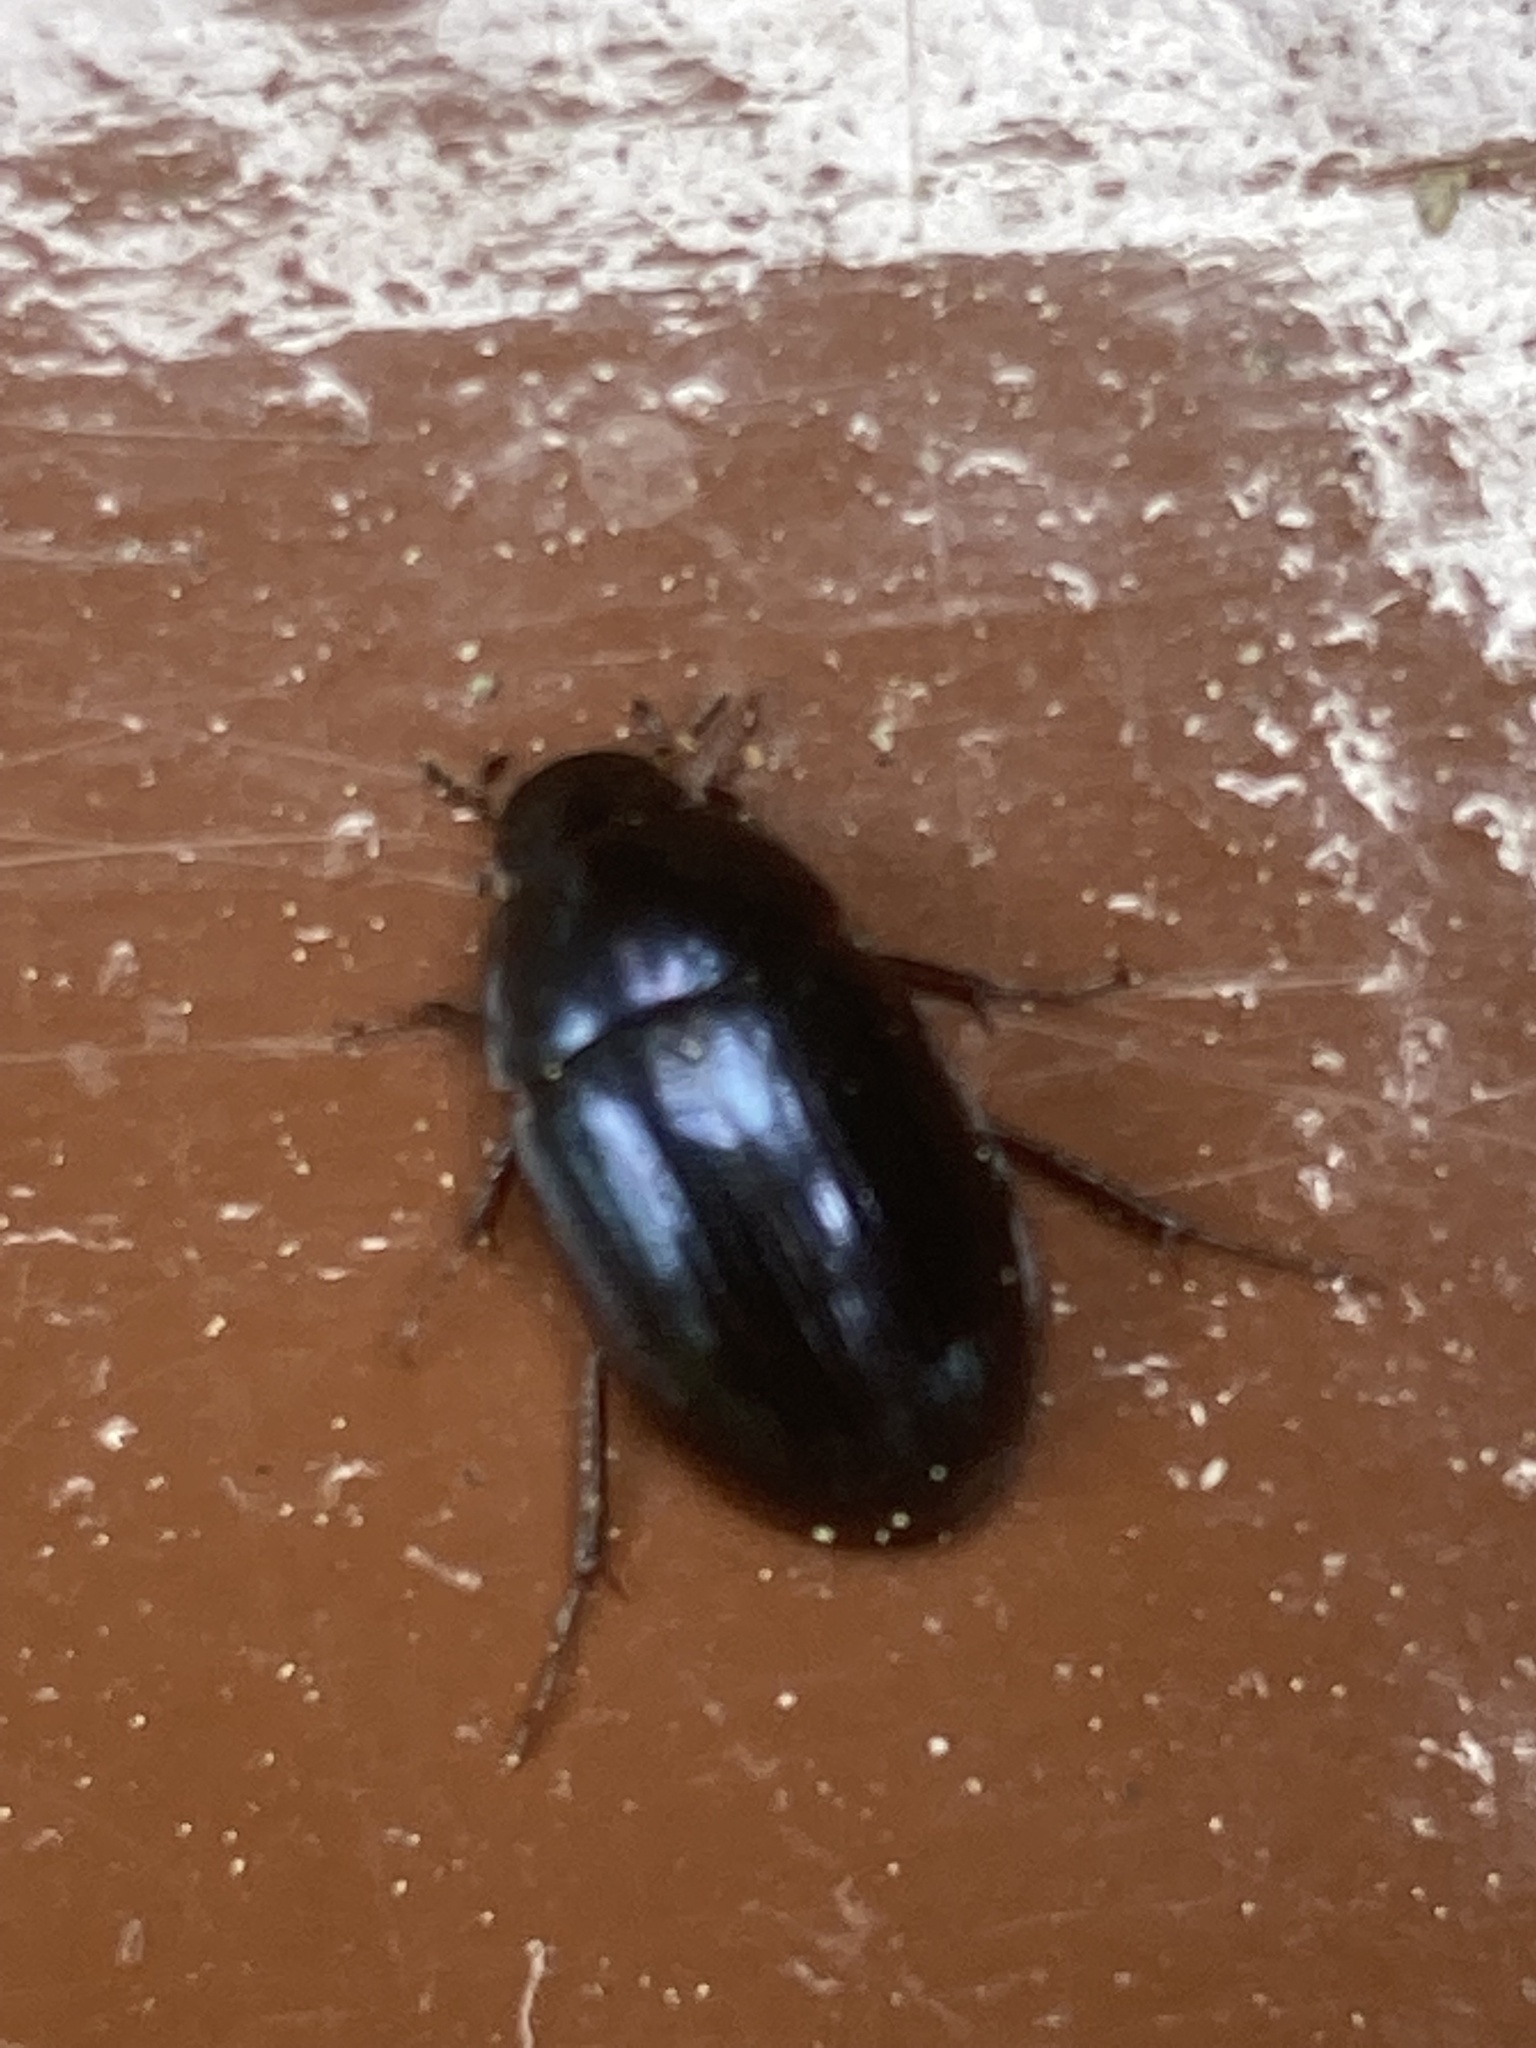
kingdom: Animalia
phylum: Arthropoda
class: Insecta
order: Coleoptera
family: Hydrophilidae
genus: Hydrobius
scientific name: Hydrobius fuscipes
